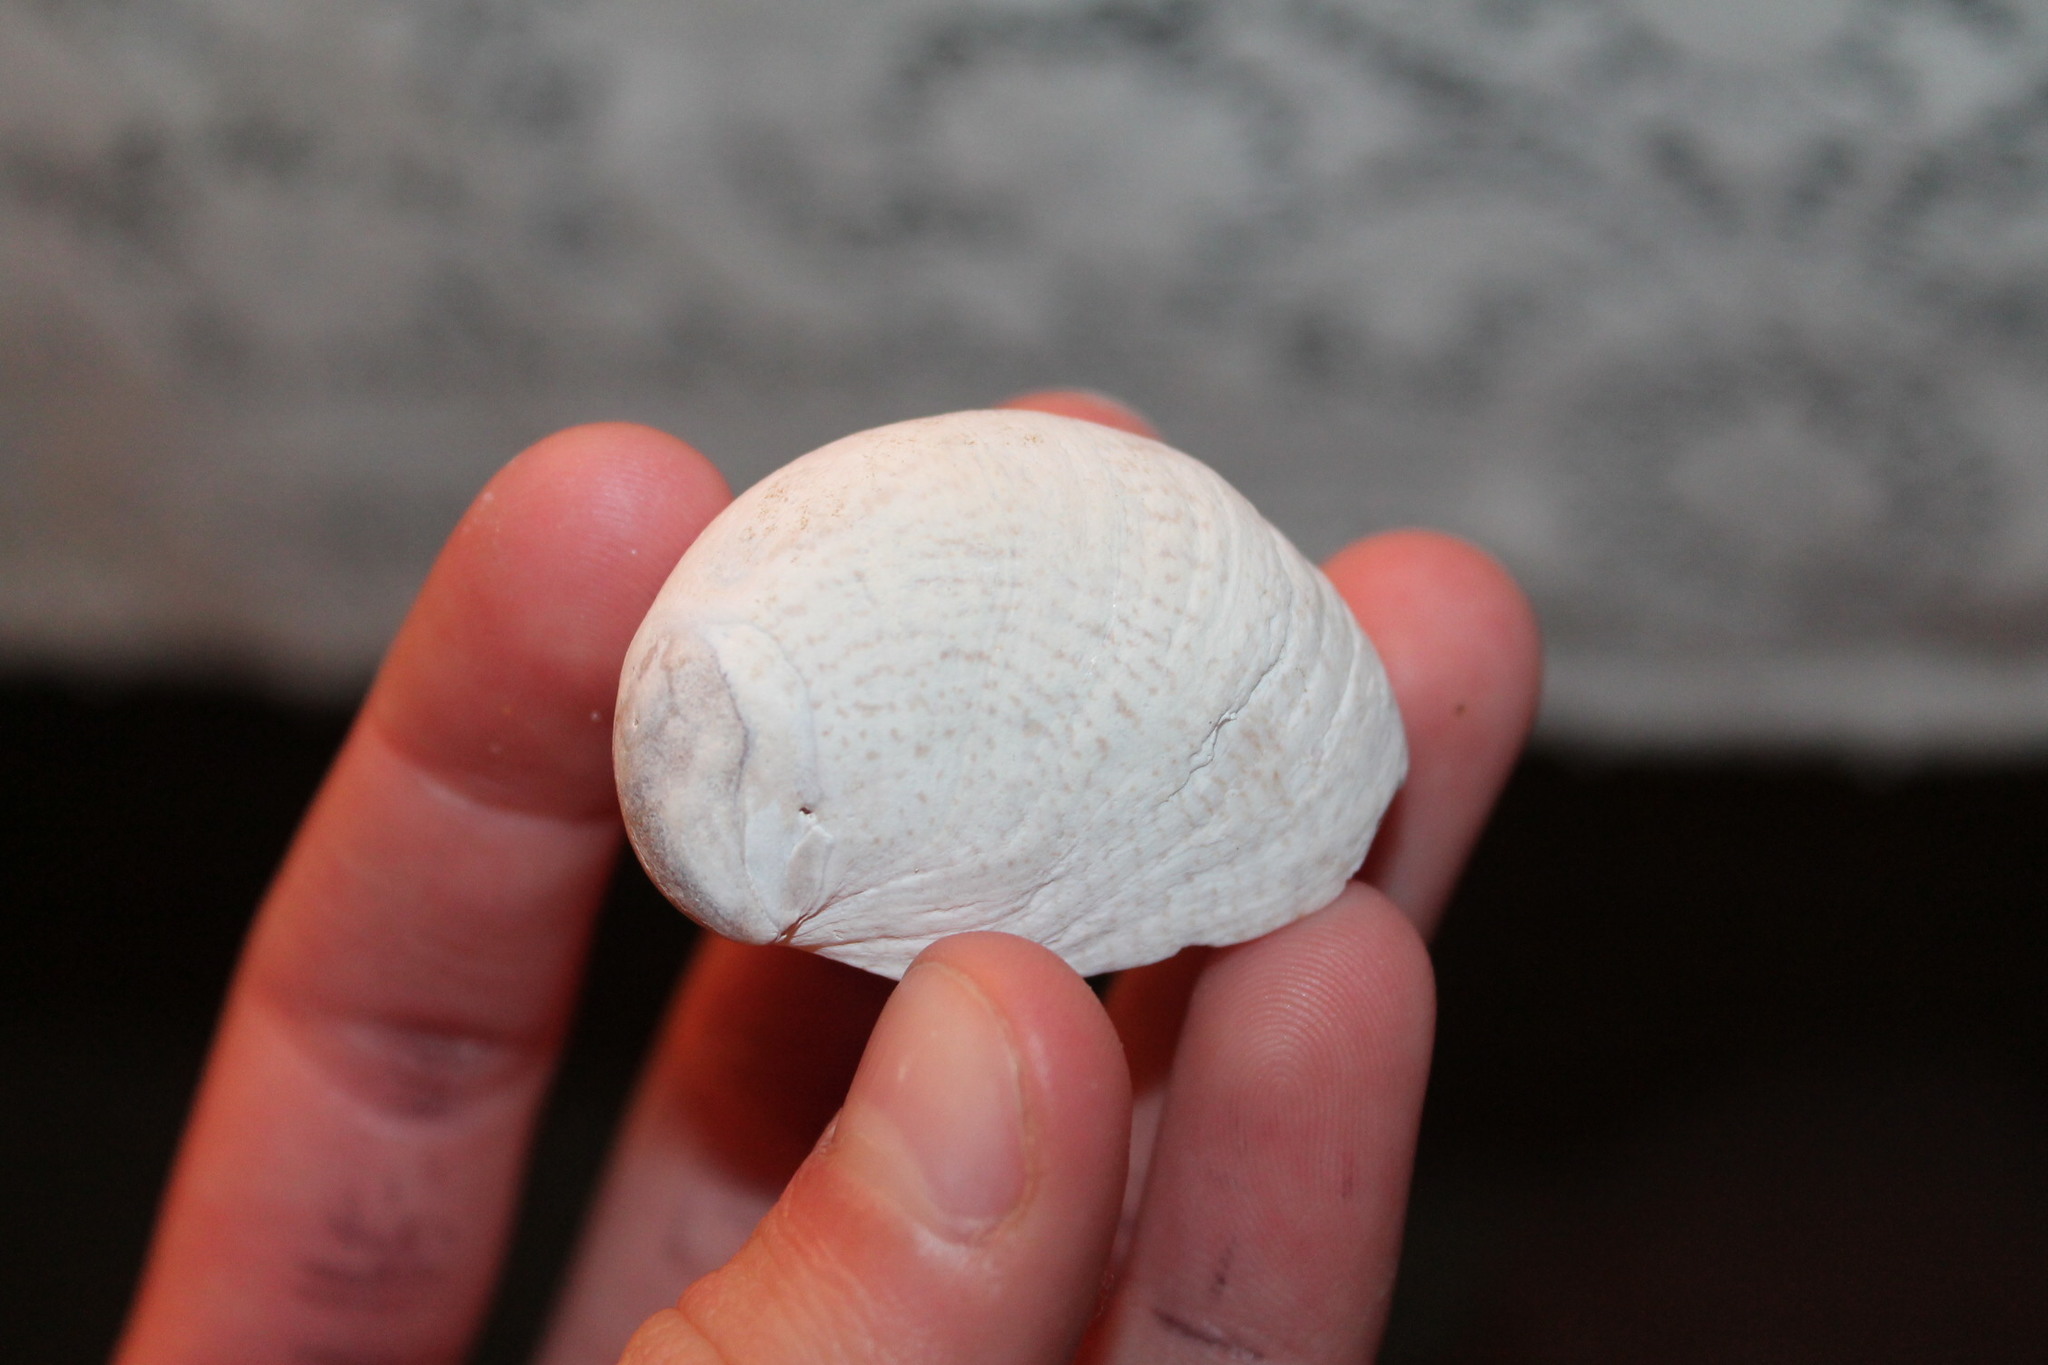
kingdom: Animalia
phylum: Mollusca
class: Gastropoda
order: Littorinimorpha
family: Calyptraeidae
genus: Crepidula
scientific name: Crepidula fornicata
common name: Slipper limpet
